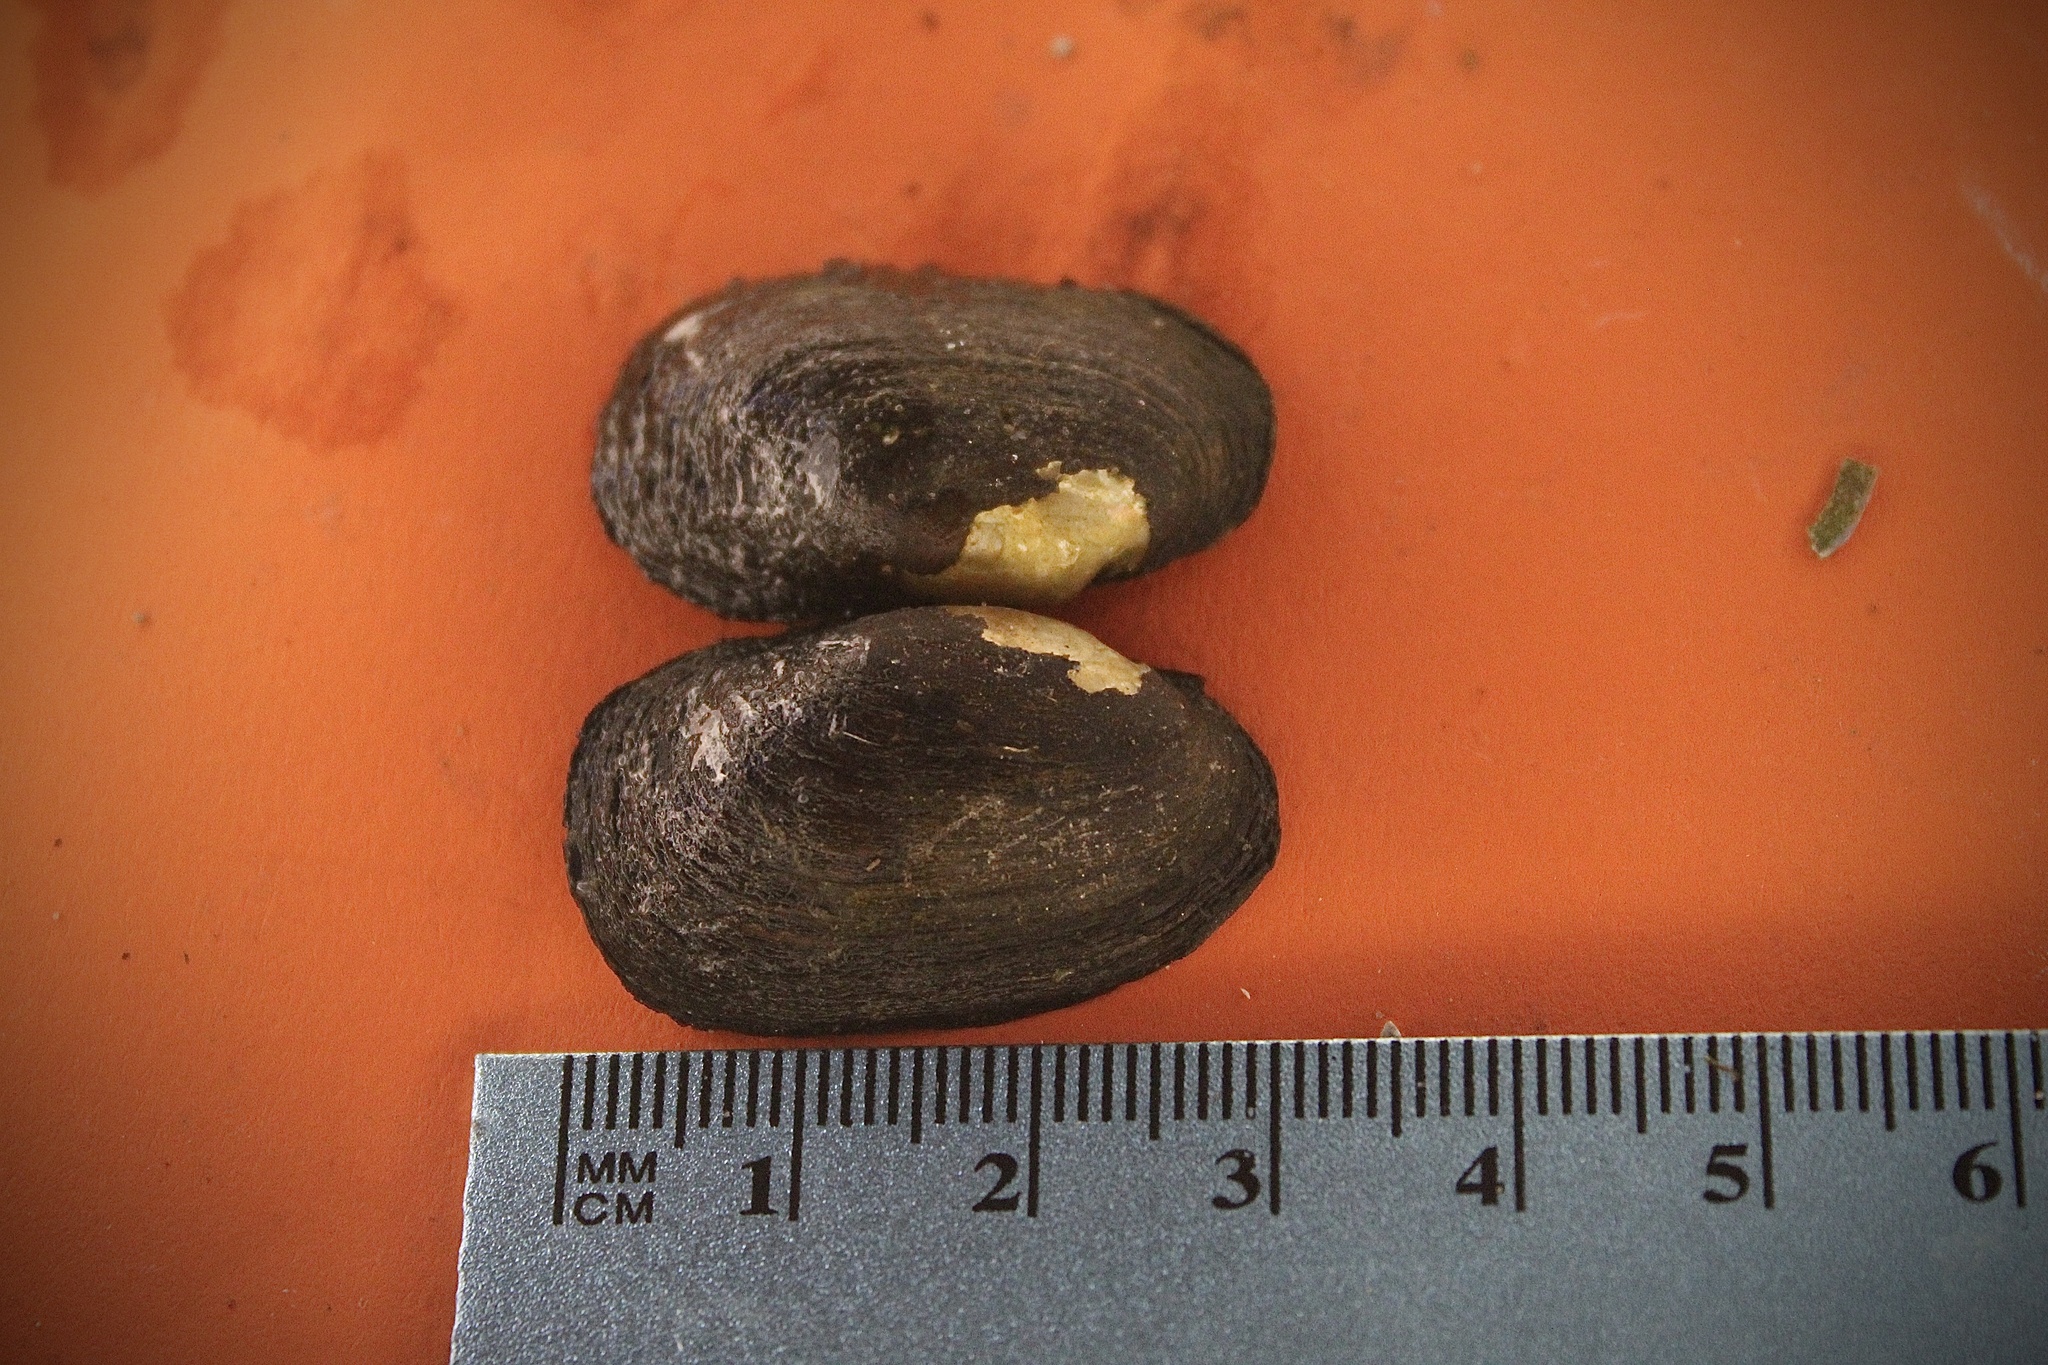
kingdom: Animalia
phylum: Mollusca
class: Bivalvia
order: Unionida
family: Unionidae
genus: Toxolasma
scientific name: Toxolasma parvum
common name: Lilliput
